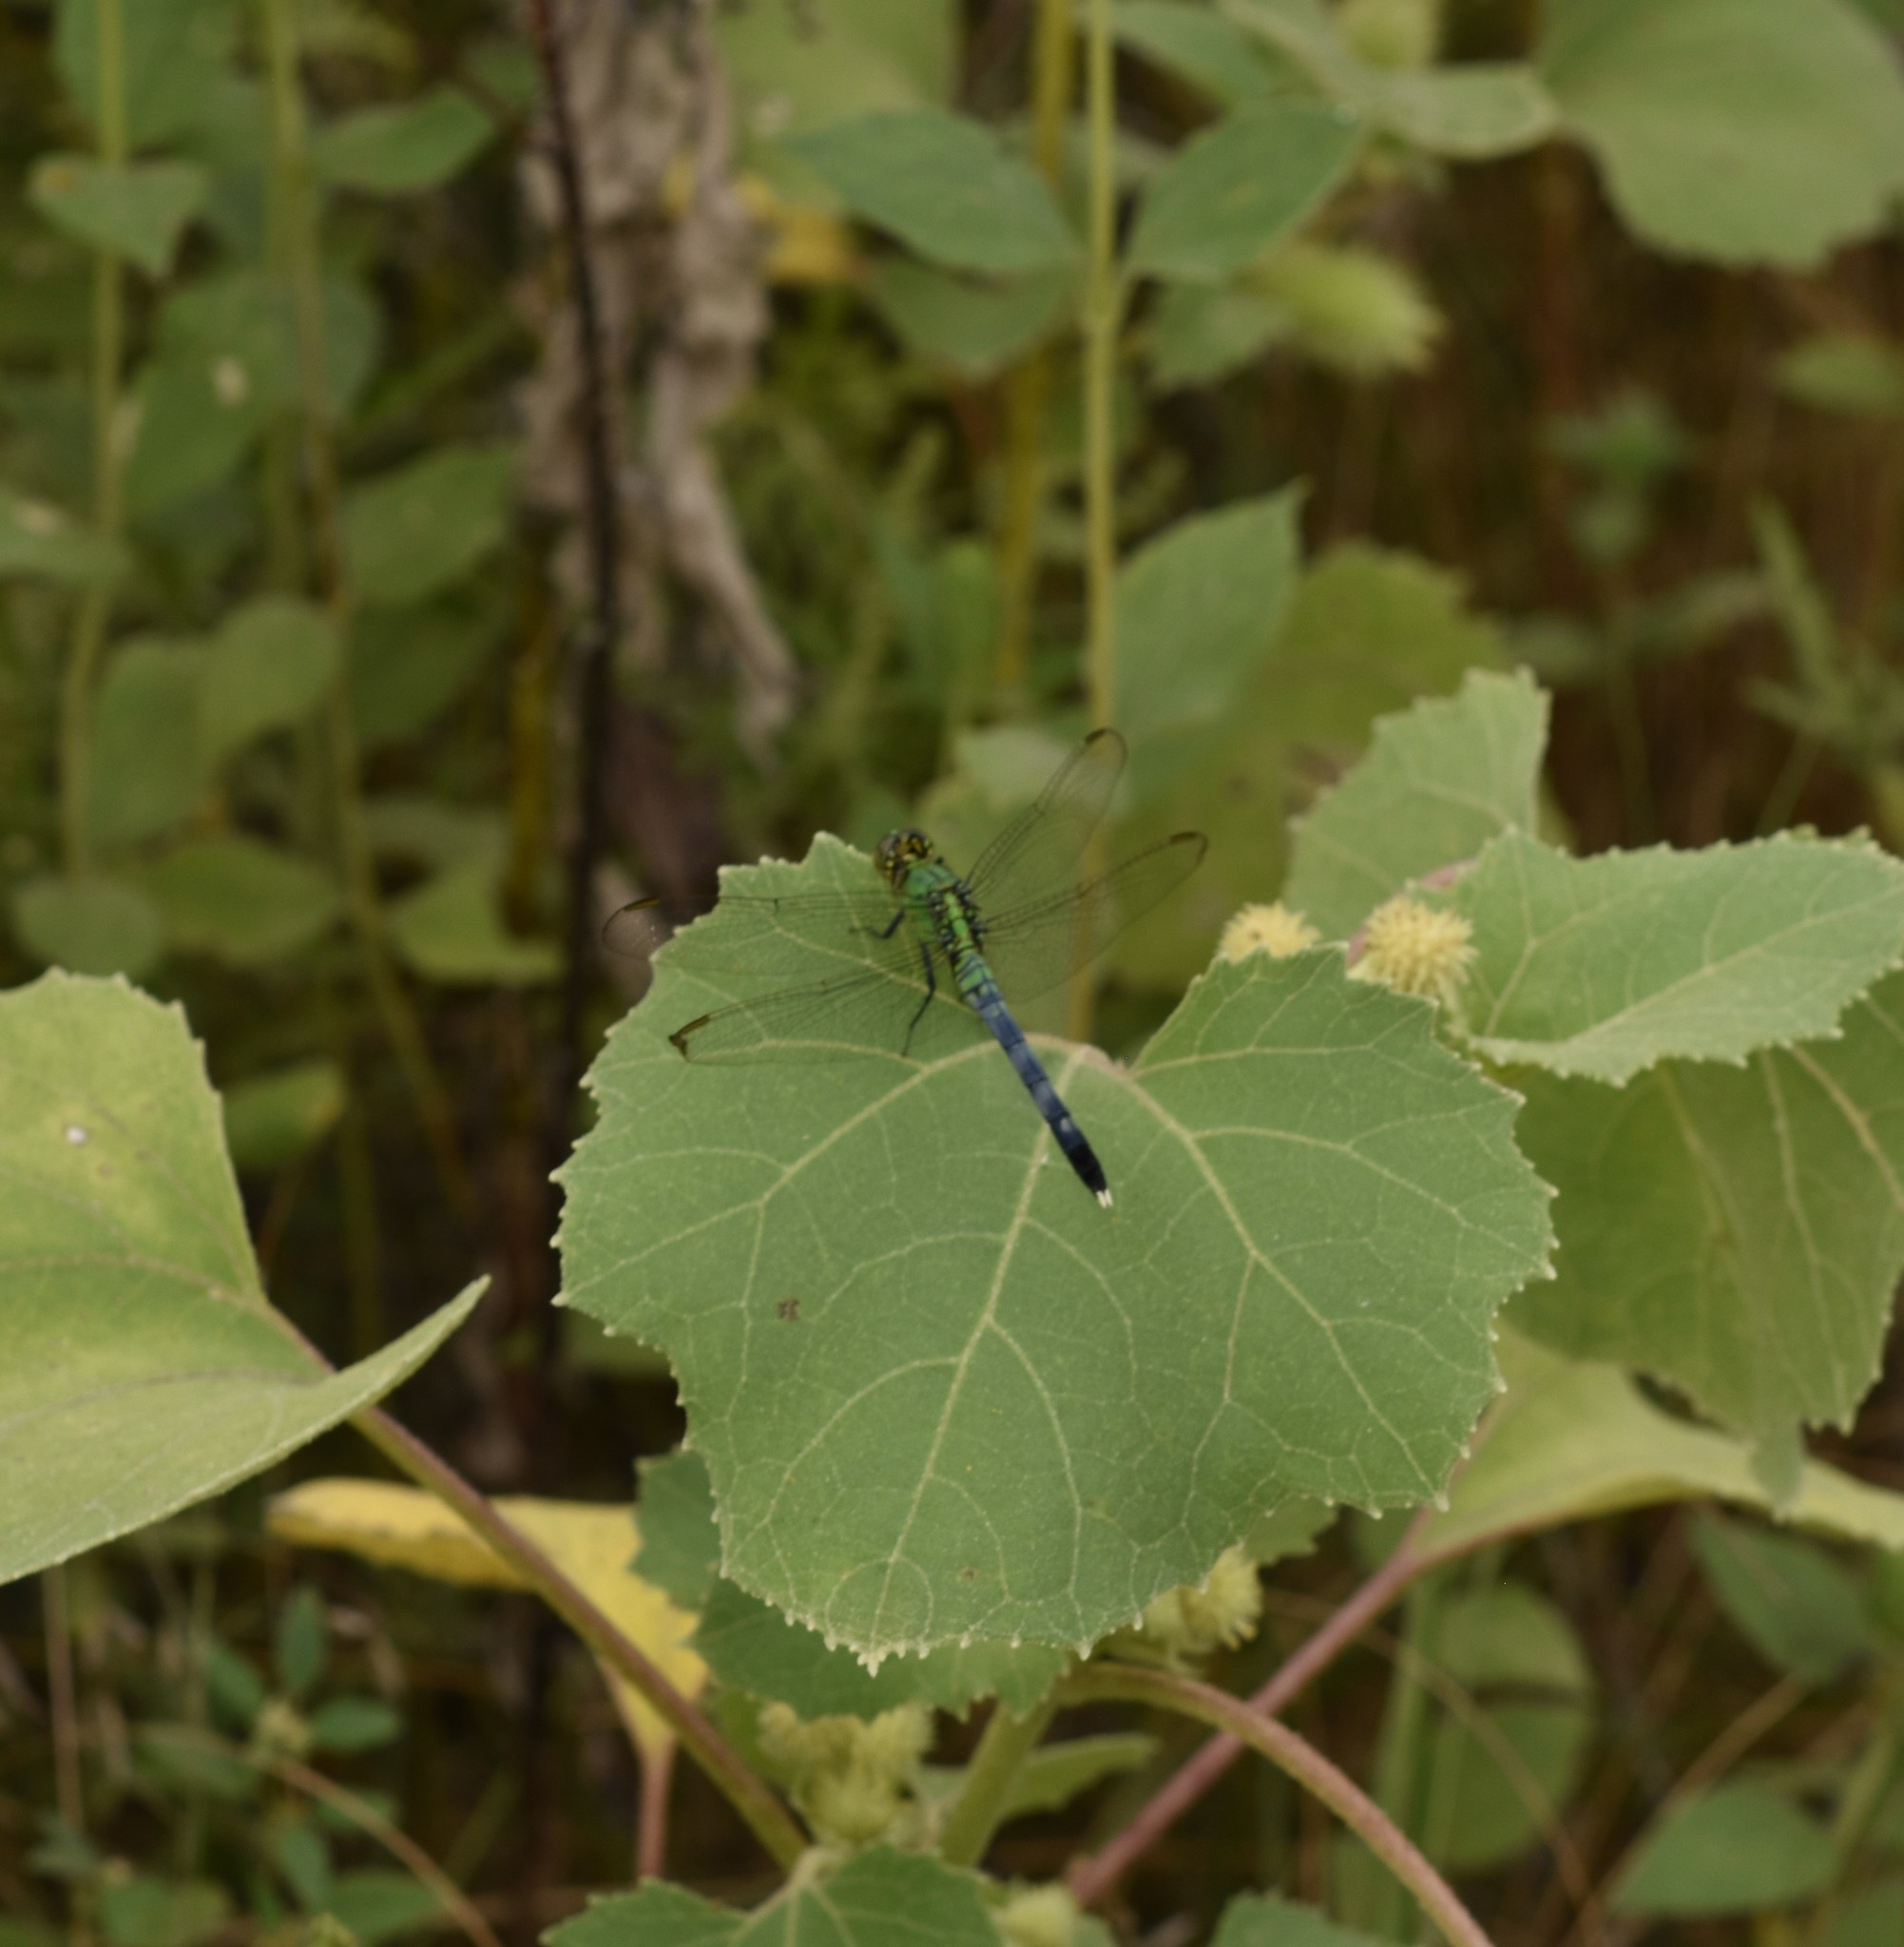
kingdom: Animalia
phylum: Arthropoda
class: Insecta
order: Odonata
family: Libellulidae
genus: Erythemis
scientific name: Erythemis simplicicollis
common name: Eastern pondhawk
